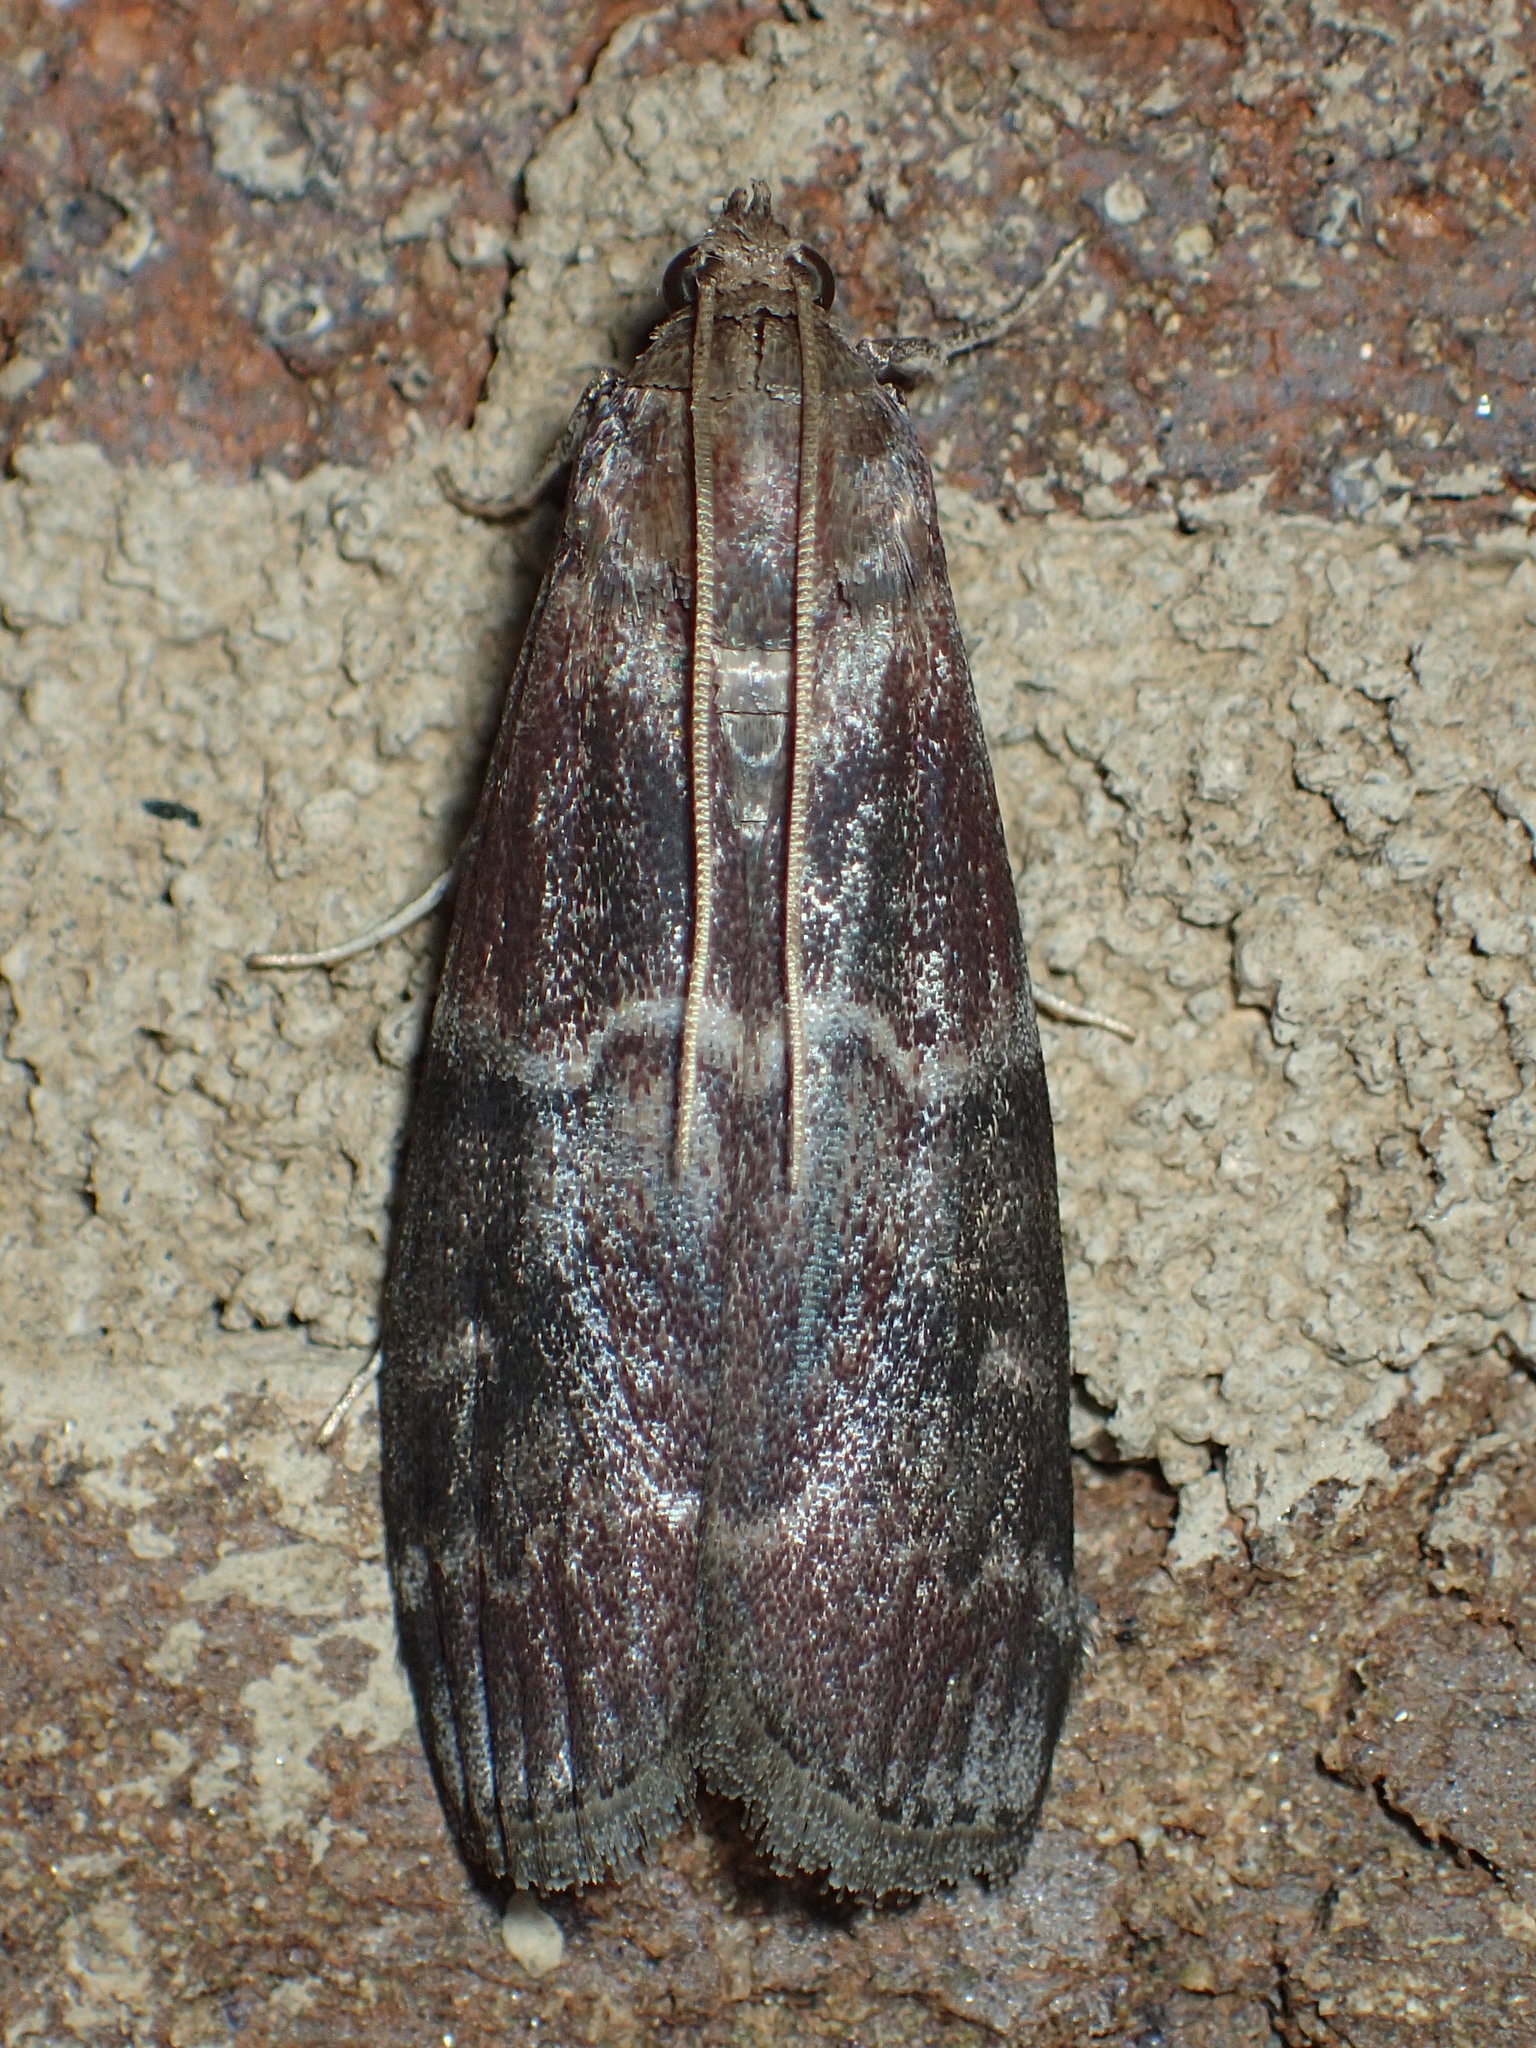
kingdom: Animalia
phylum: Arthropoda
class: Insecta
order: Lepidoptera
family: Pyralidae
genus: Euzophera
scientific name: Euzophera ostricolorella
